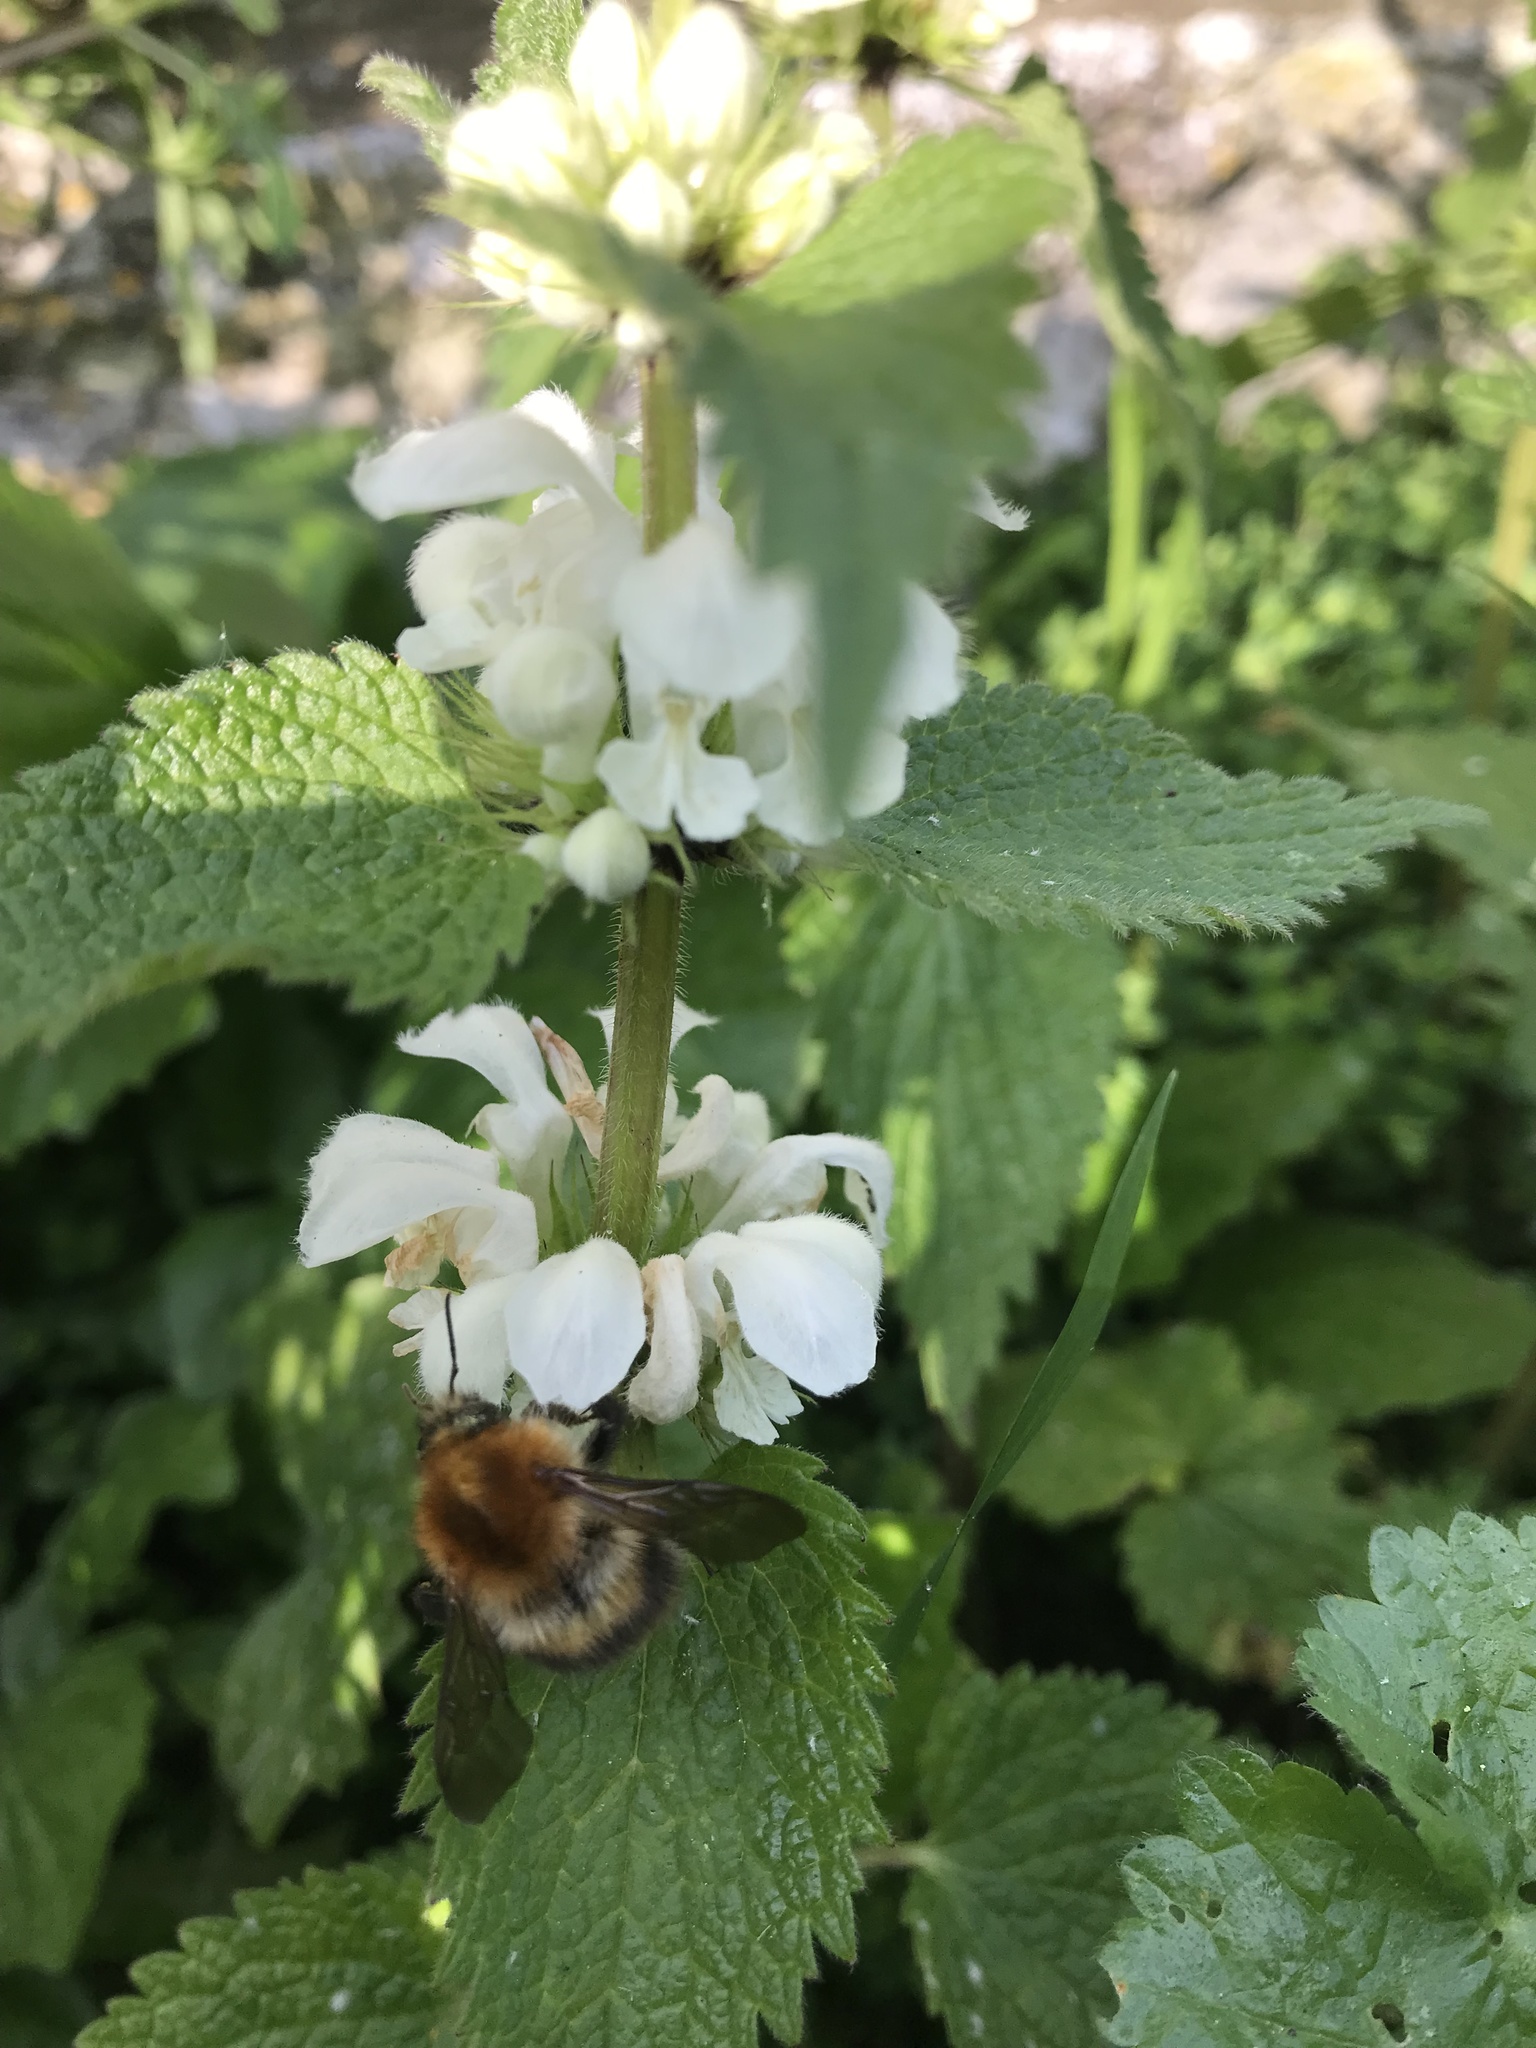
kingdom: Plantae
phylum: Tracheophyta
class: Magnoliopsida
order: Lamiales
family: Lamiaceae
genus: Lamium
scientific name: Lamium album
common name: White dead-nettle
